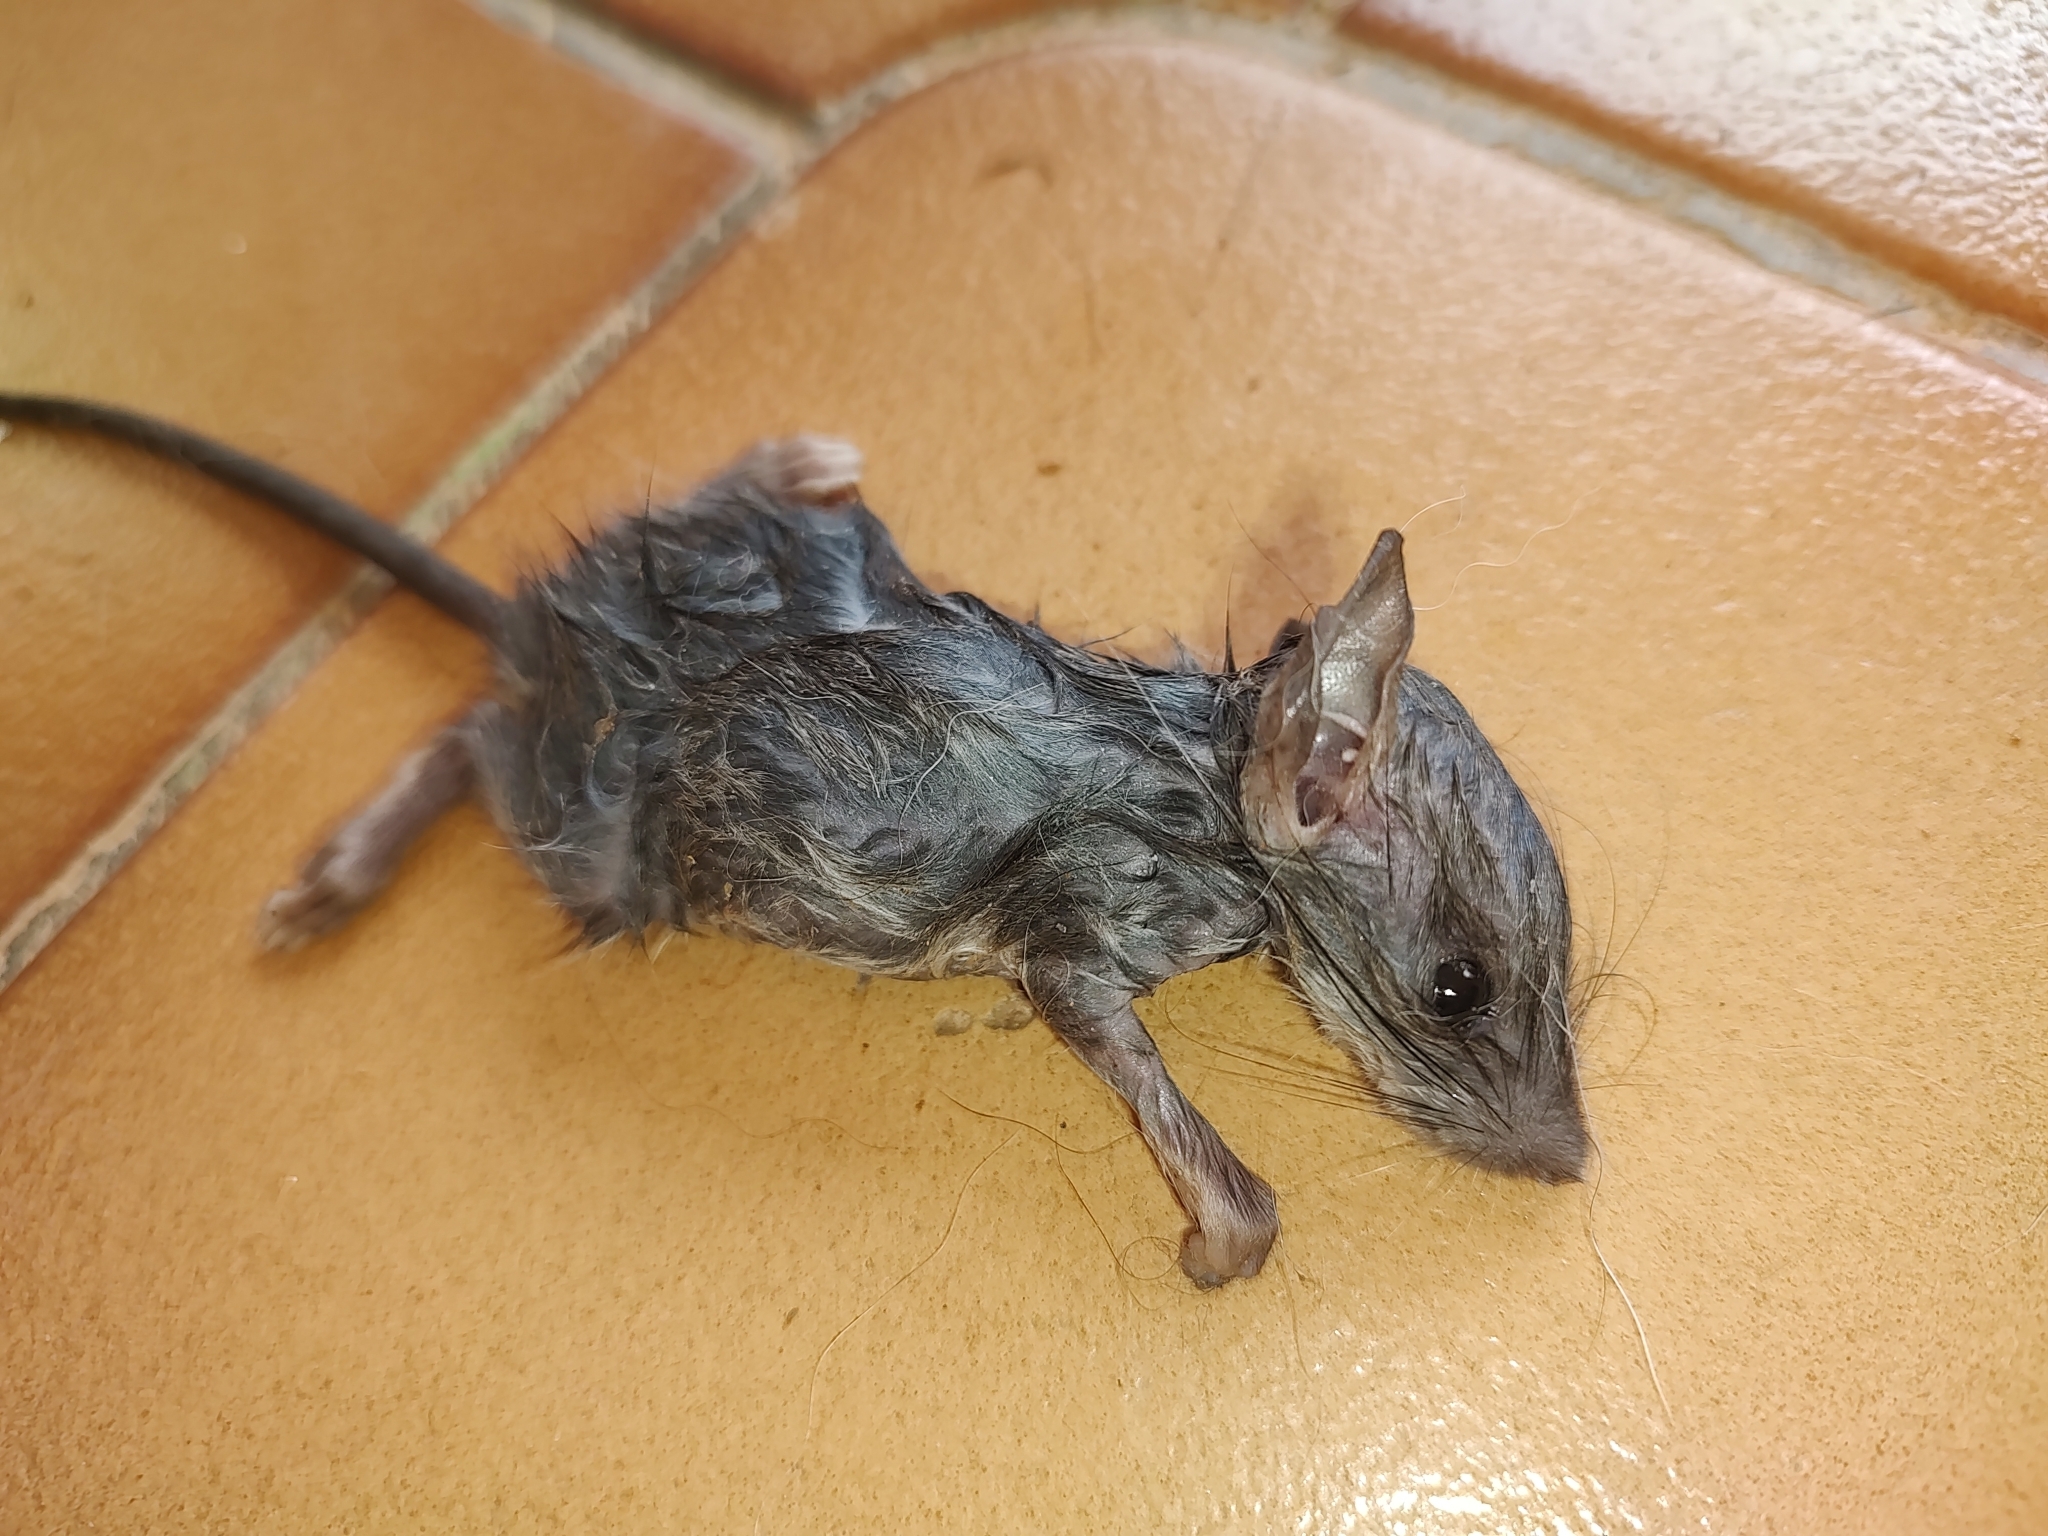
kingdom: Animalia
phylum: Chordata
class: Mammalia
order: Rodentia
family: Muridae
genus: Mus
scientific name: Mus musculus
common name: House mouse
